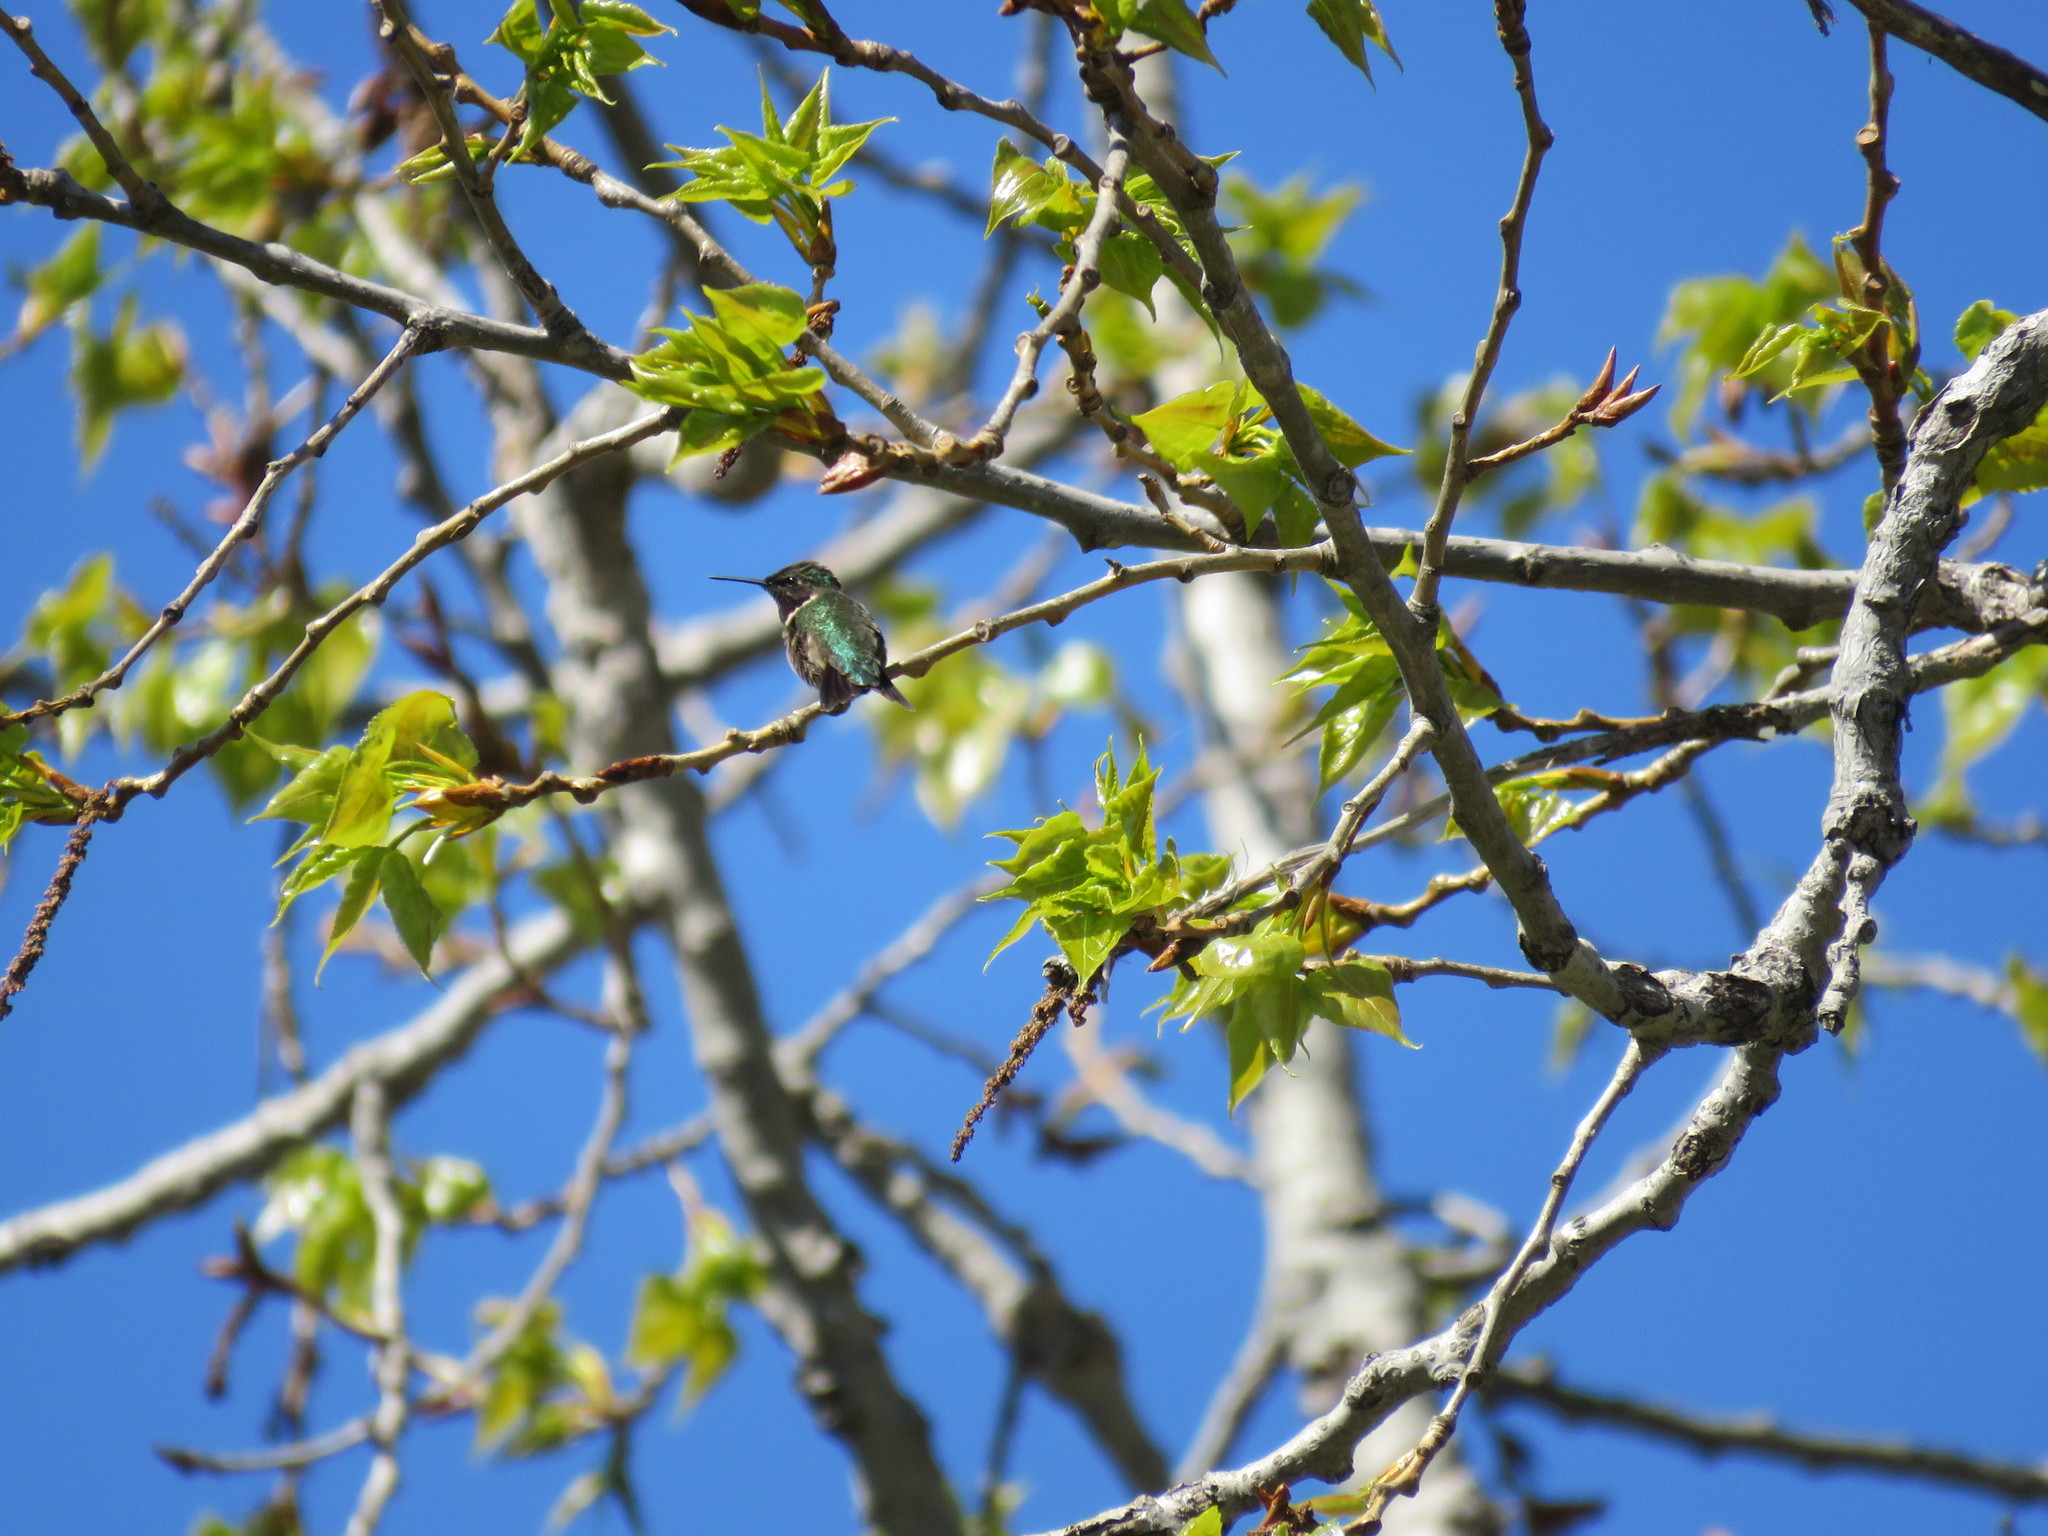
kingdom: Animalia
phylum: Chordata
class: Aves
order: Apodiformes
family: Trochilidae
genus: Archilochus
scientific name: Archilochus colubris
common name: Ruby-throated hummingbird
